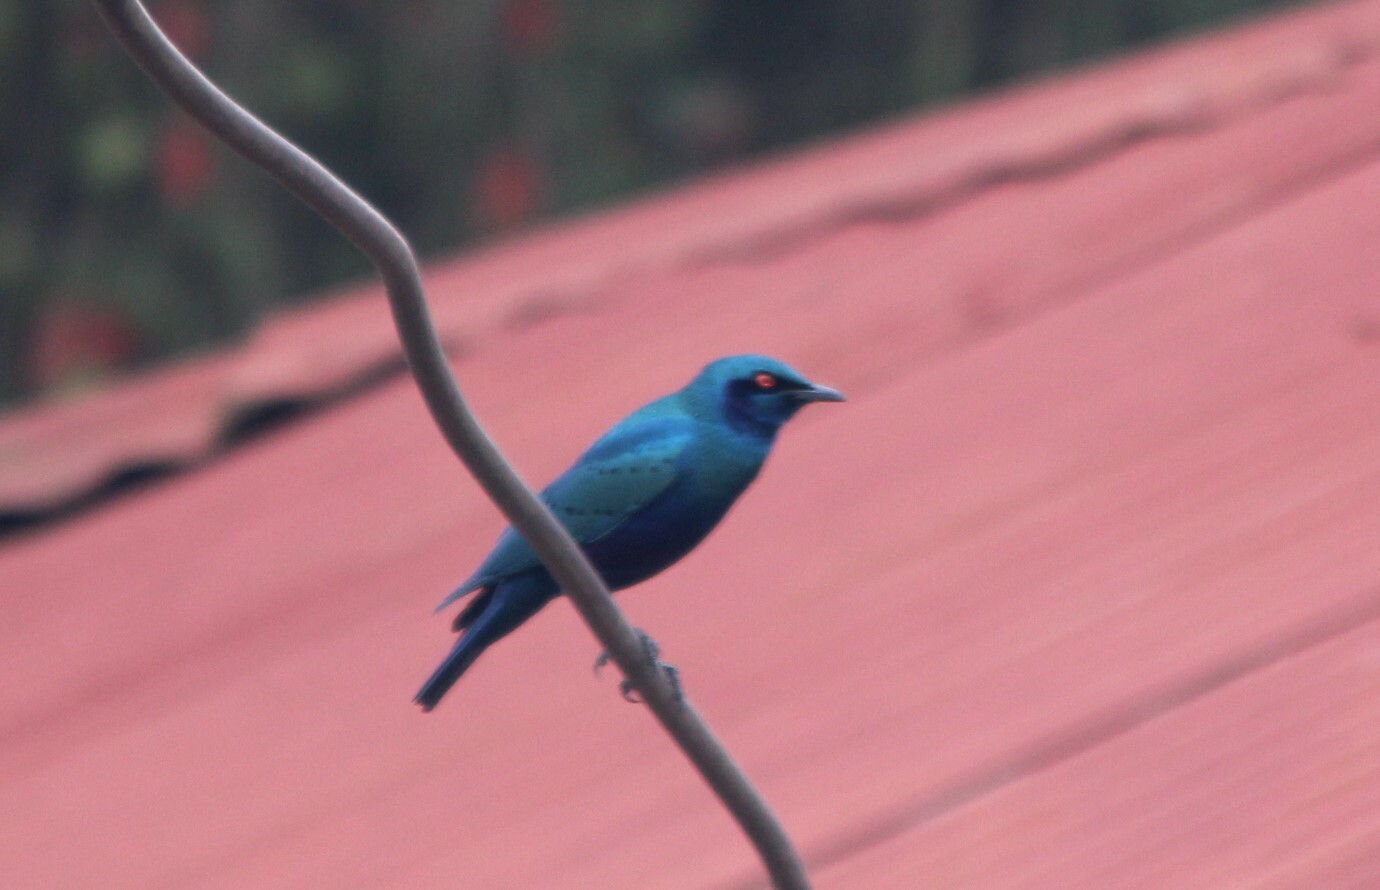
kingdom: Animalia
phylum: Chordata
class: Aves
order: Passeriformes
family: Sturnidae
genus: Lamprotornis
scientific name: Lamprotornis chalybaeus
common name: Greater blue-eared starling
